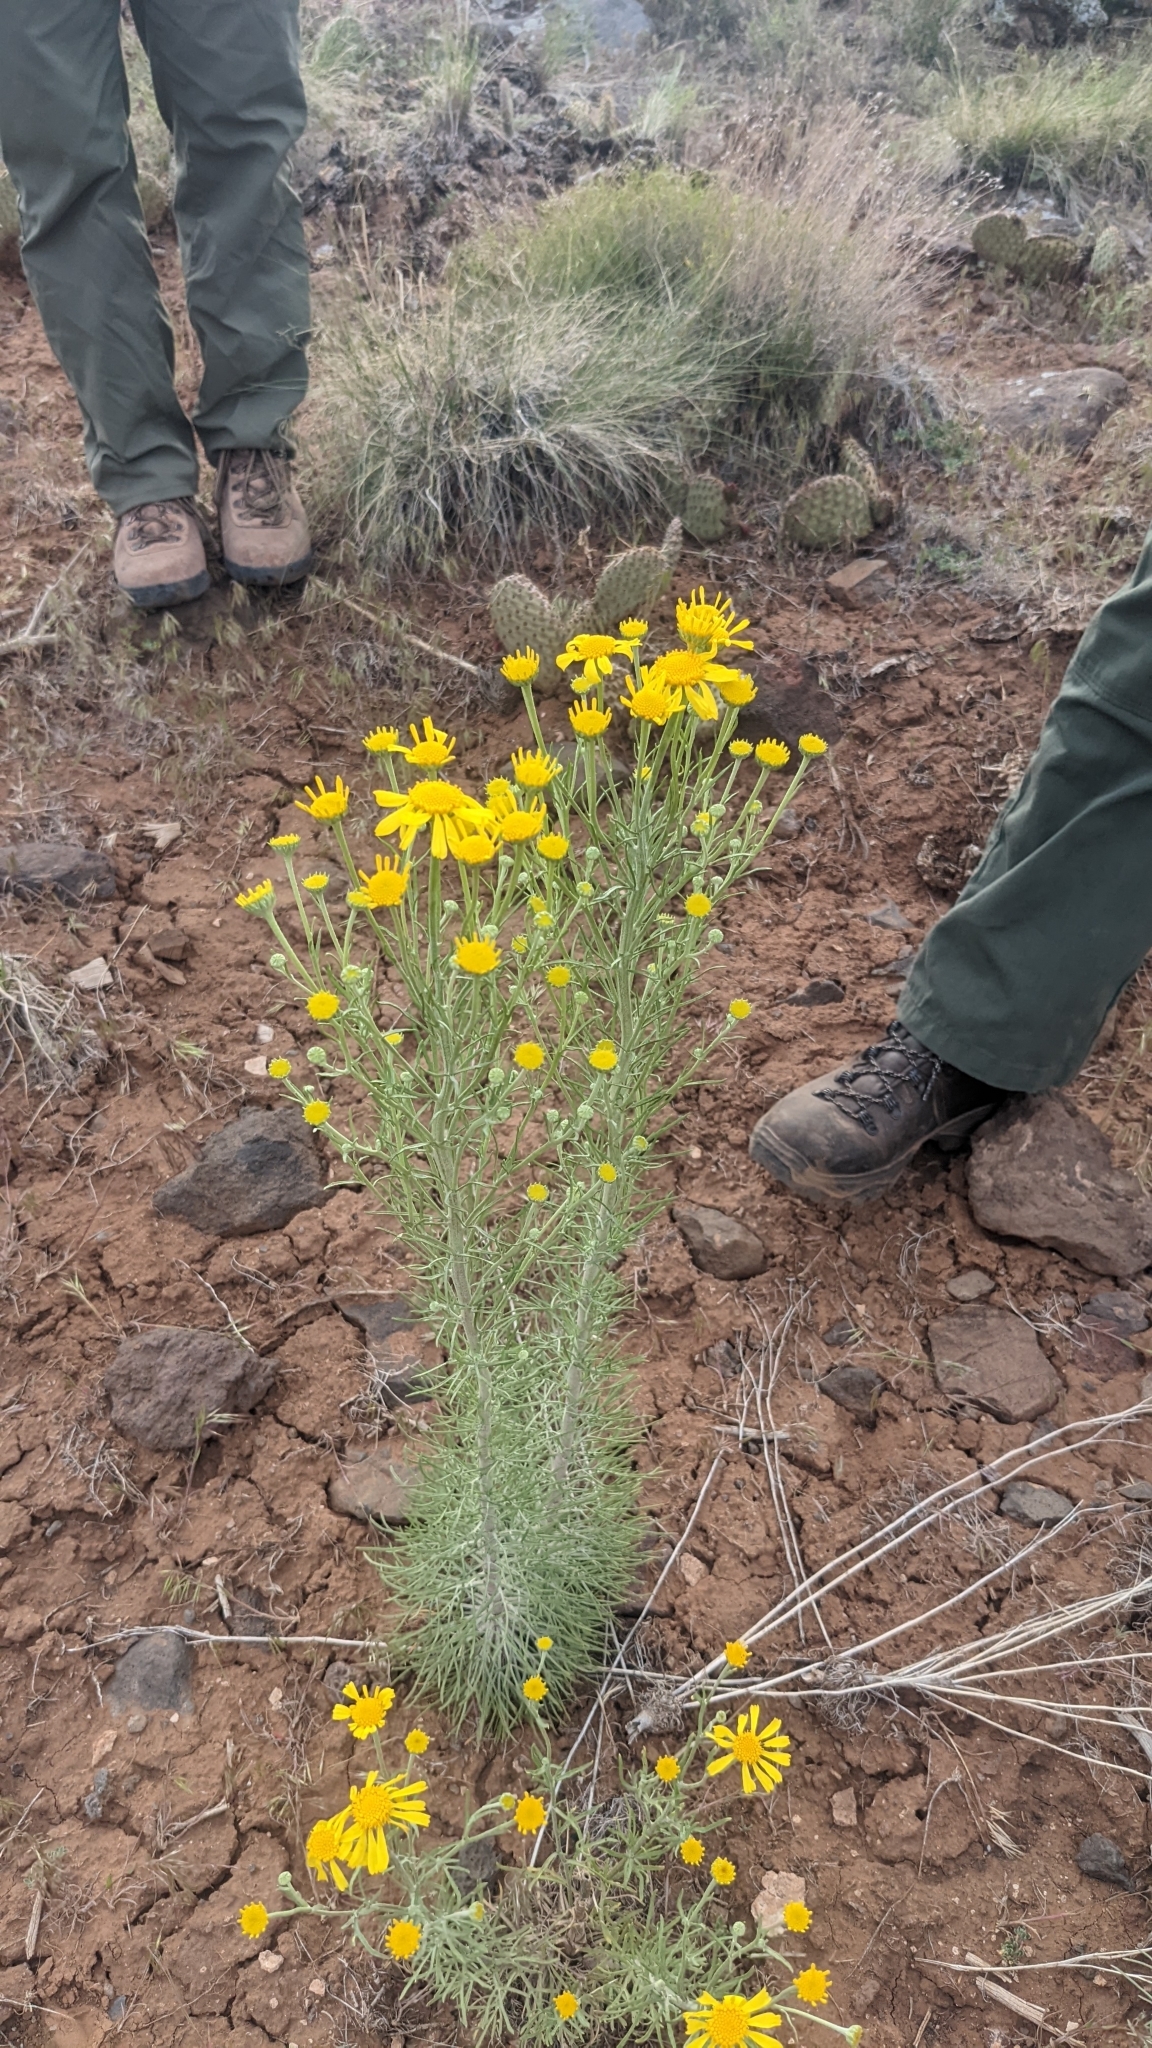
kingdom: Plantae
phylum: Tracheophyta
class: Magnoliopsida
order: Asterales
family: Asteraceae
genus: Hymenoxys
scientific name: Hymenoxys cooperi
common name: Cooper's bitterweed
